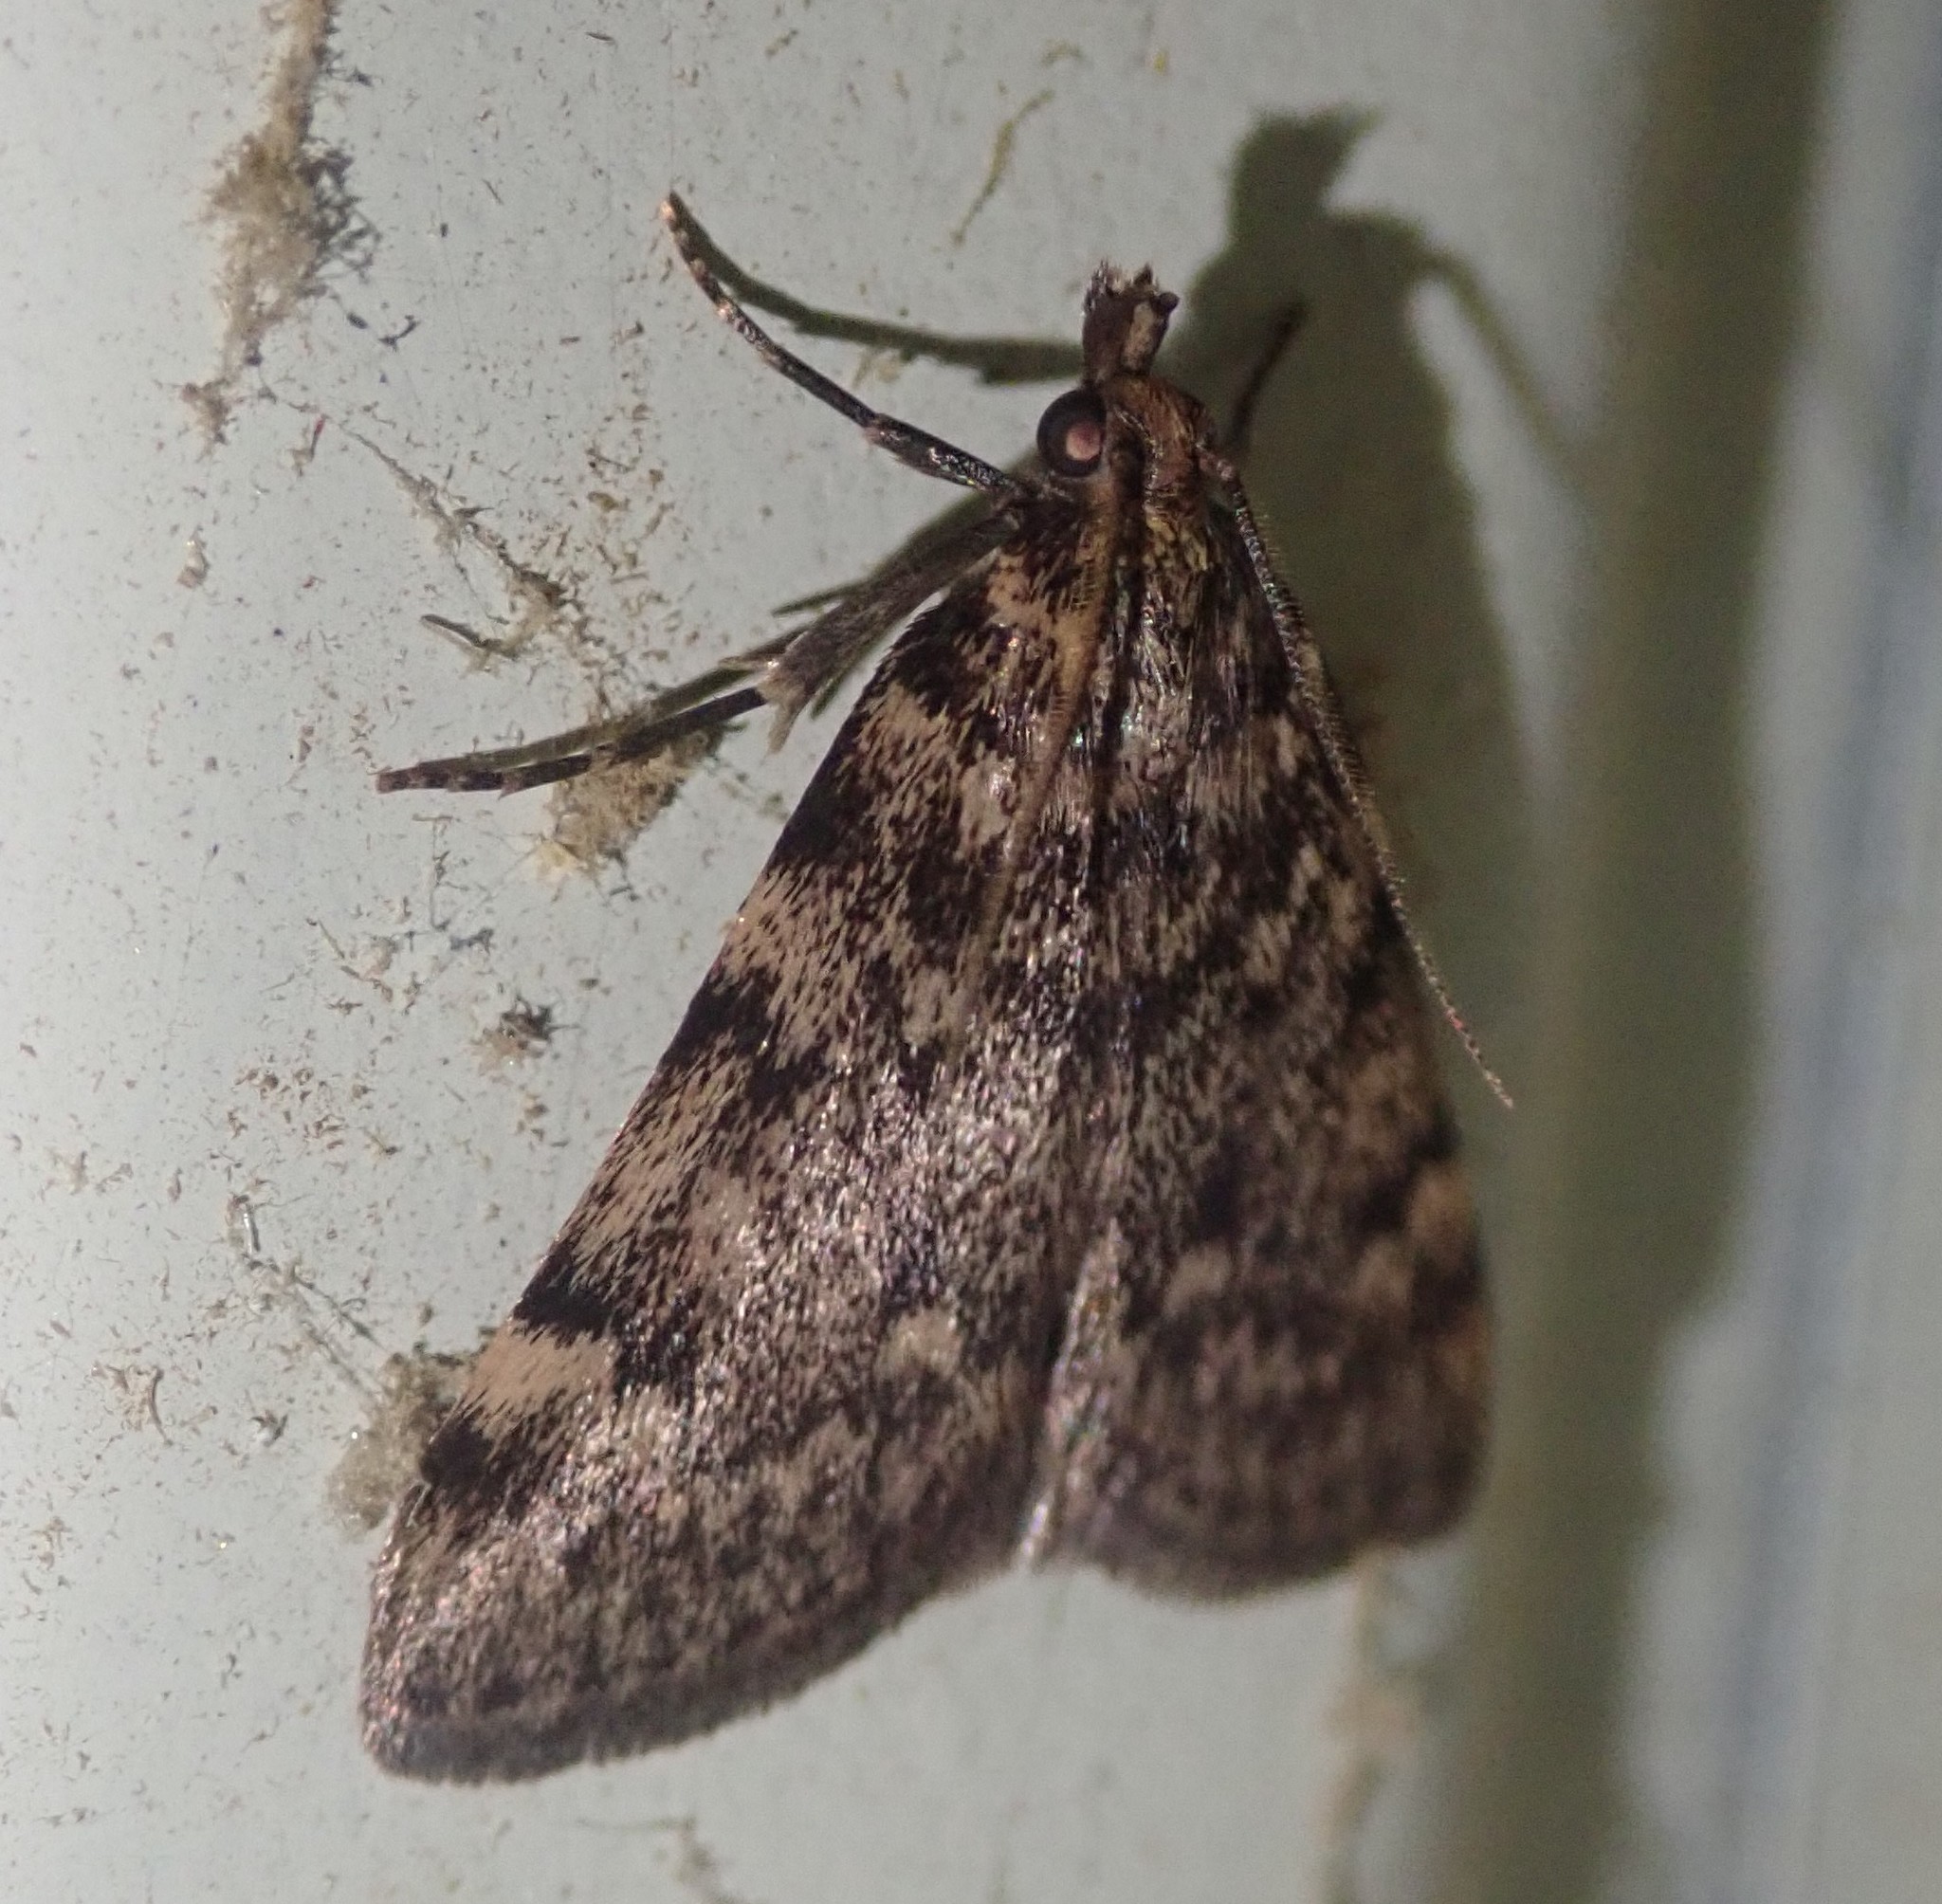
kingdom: Animalia
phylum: Arthropoda
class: Insecta
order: Lepidoptera
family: Pyralidae
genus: Aglossa
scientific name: Aglossa pinguinalis
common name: Large tabby
